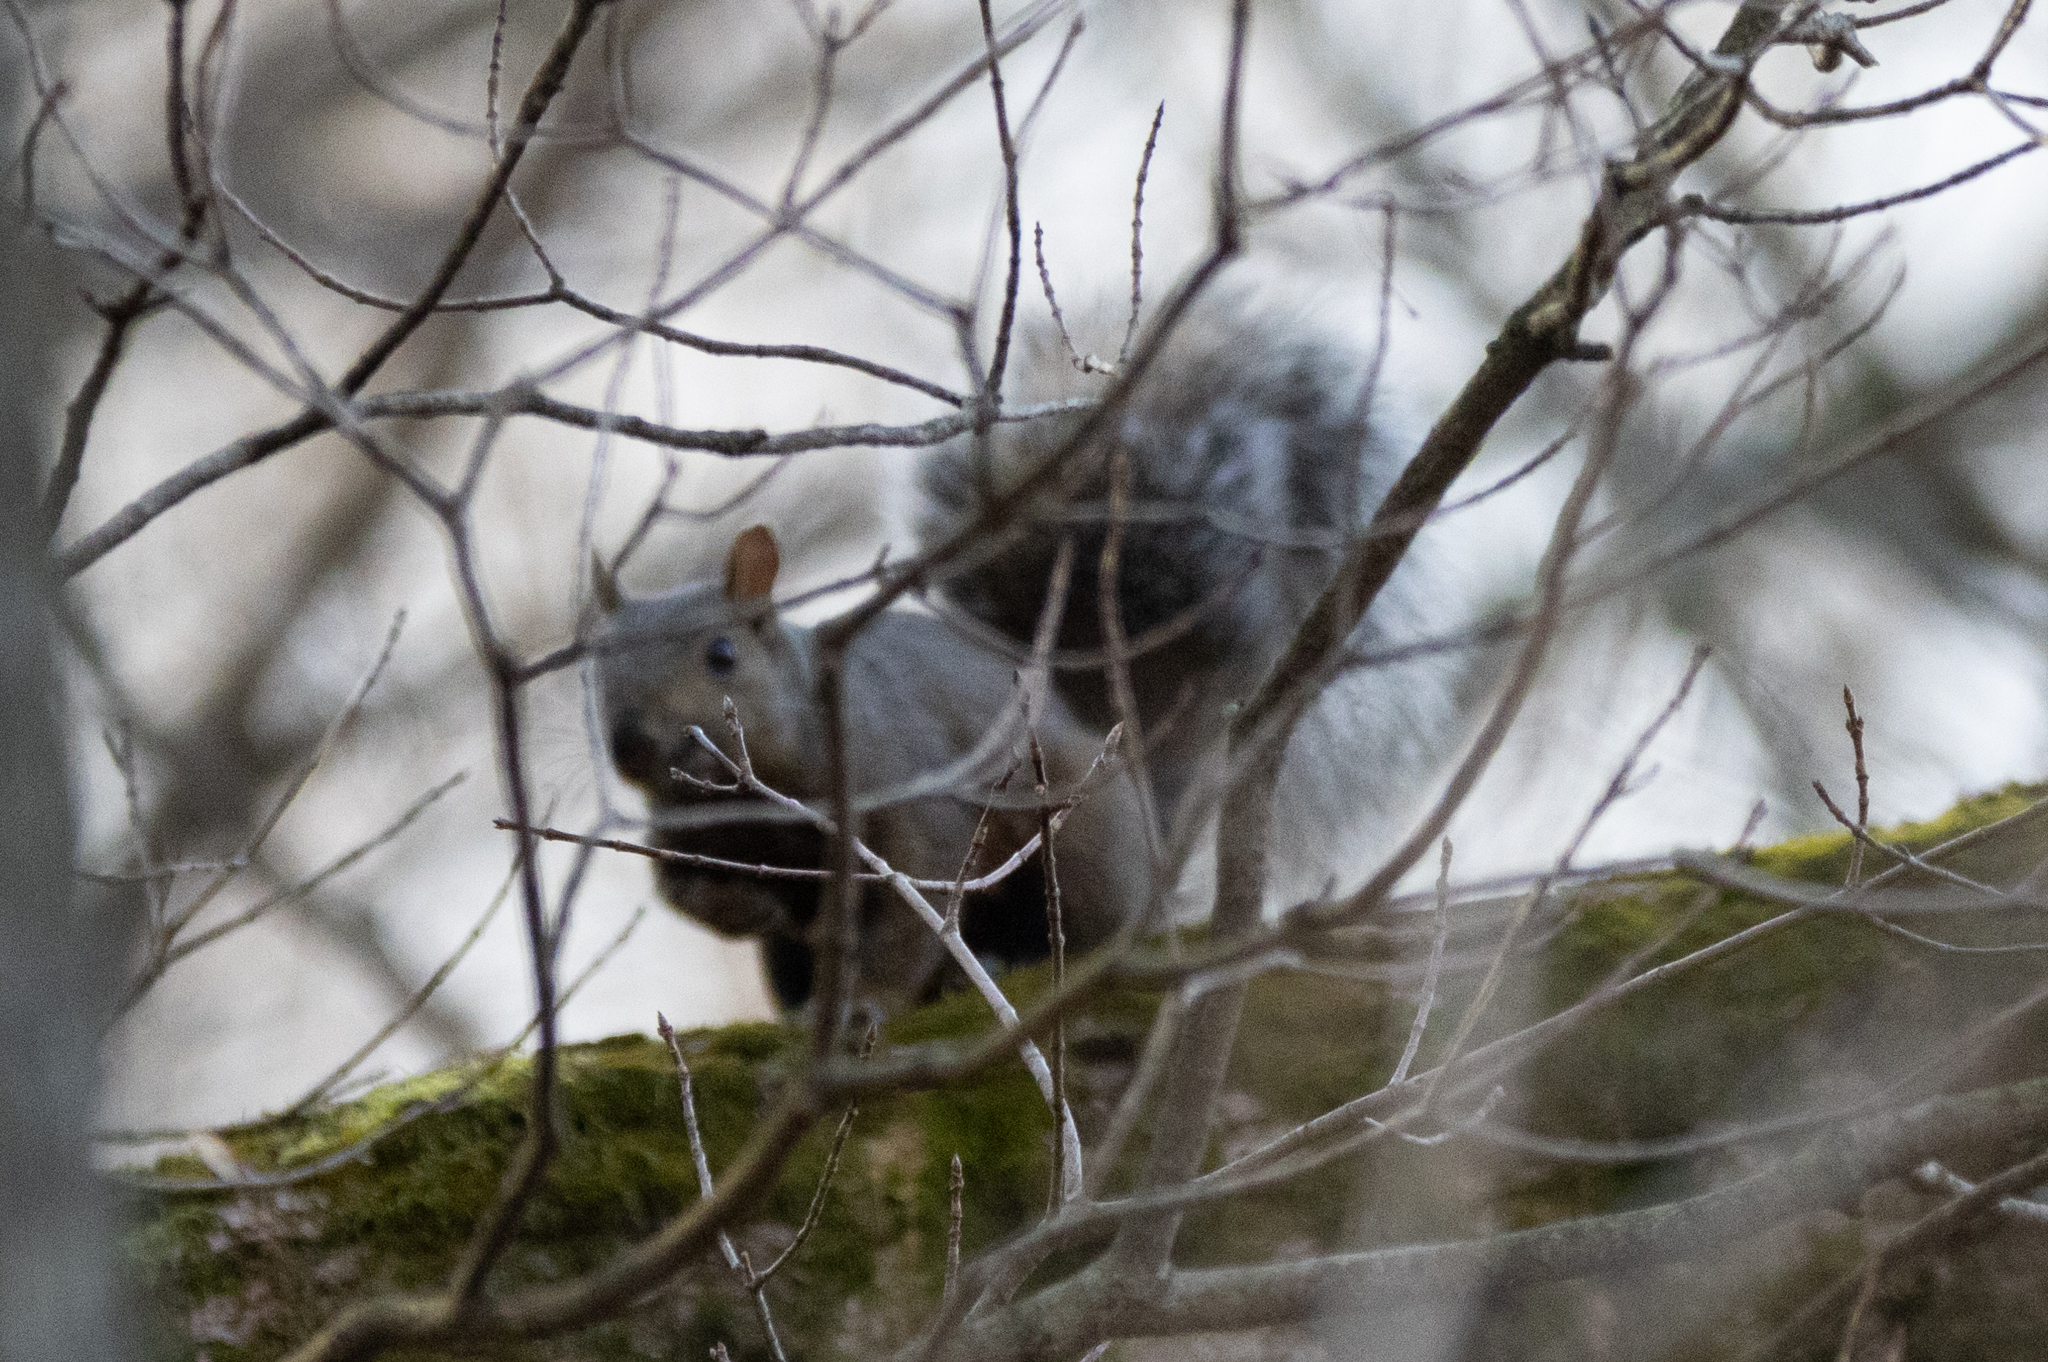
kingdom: Animalia
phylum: Chordata
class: Mammalia
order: Rodentia
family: Sciuridae
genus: Sciurus
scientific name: Sciurus carolinensis
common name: Eastern gray squirrel
